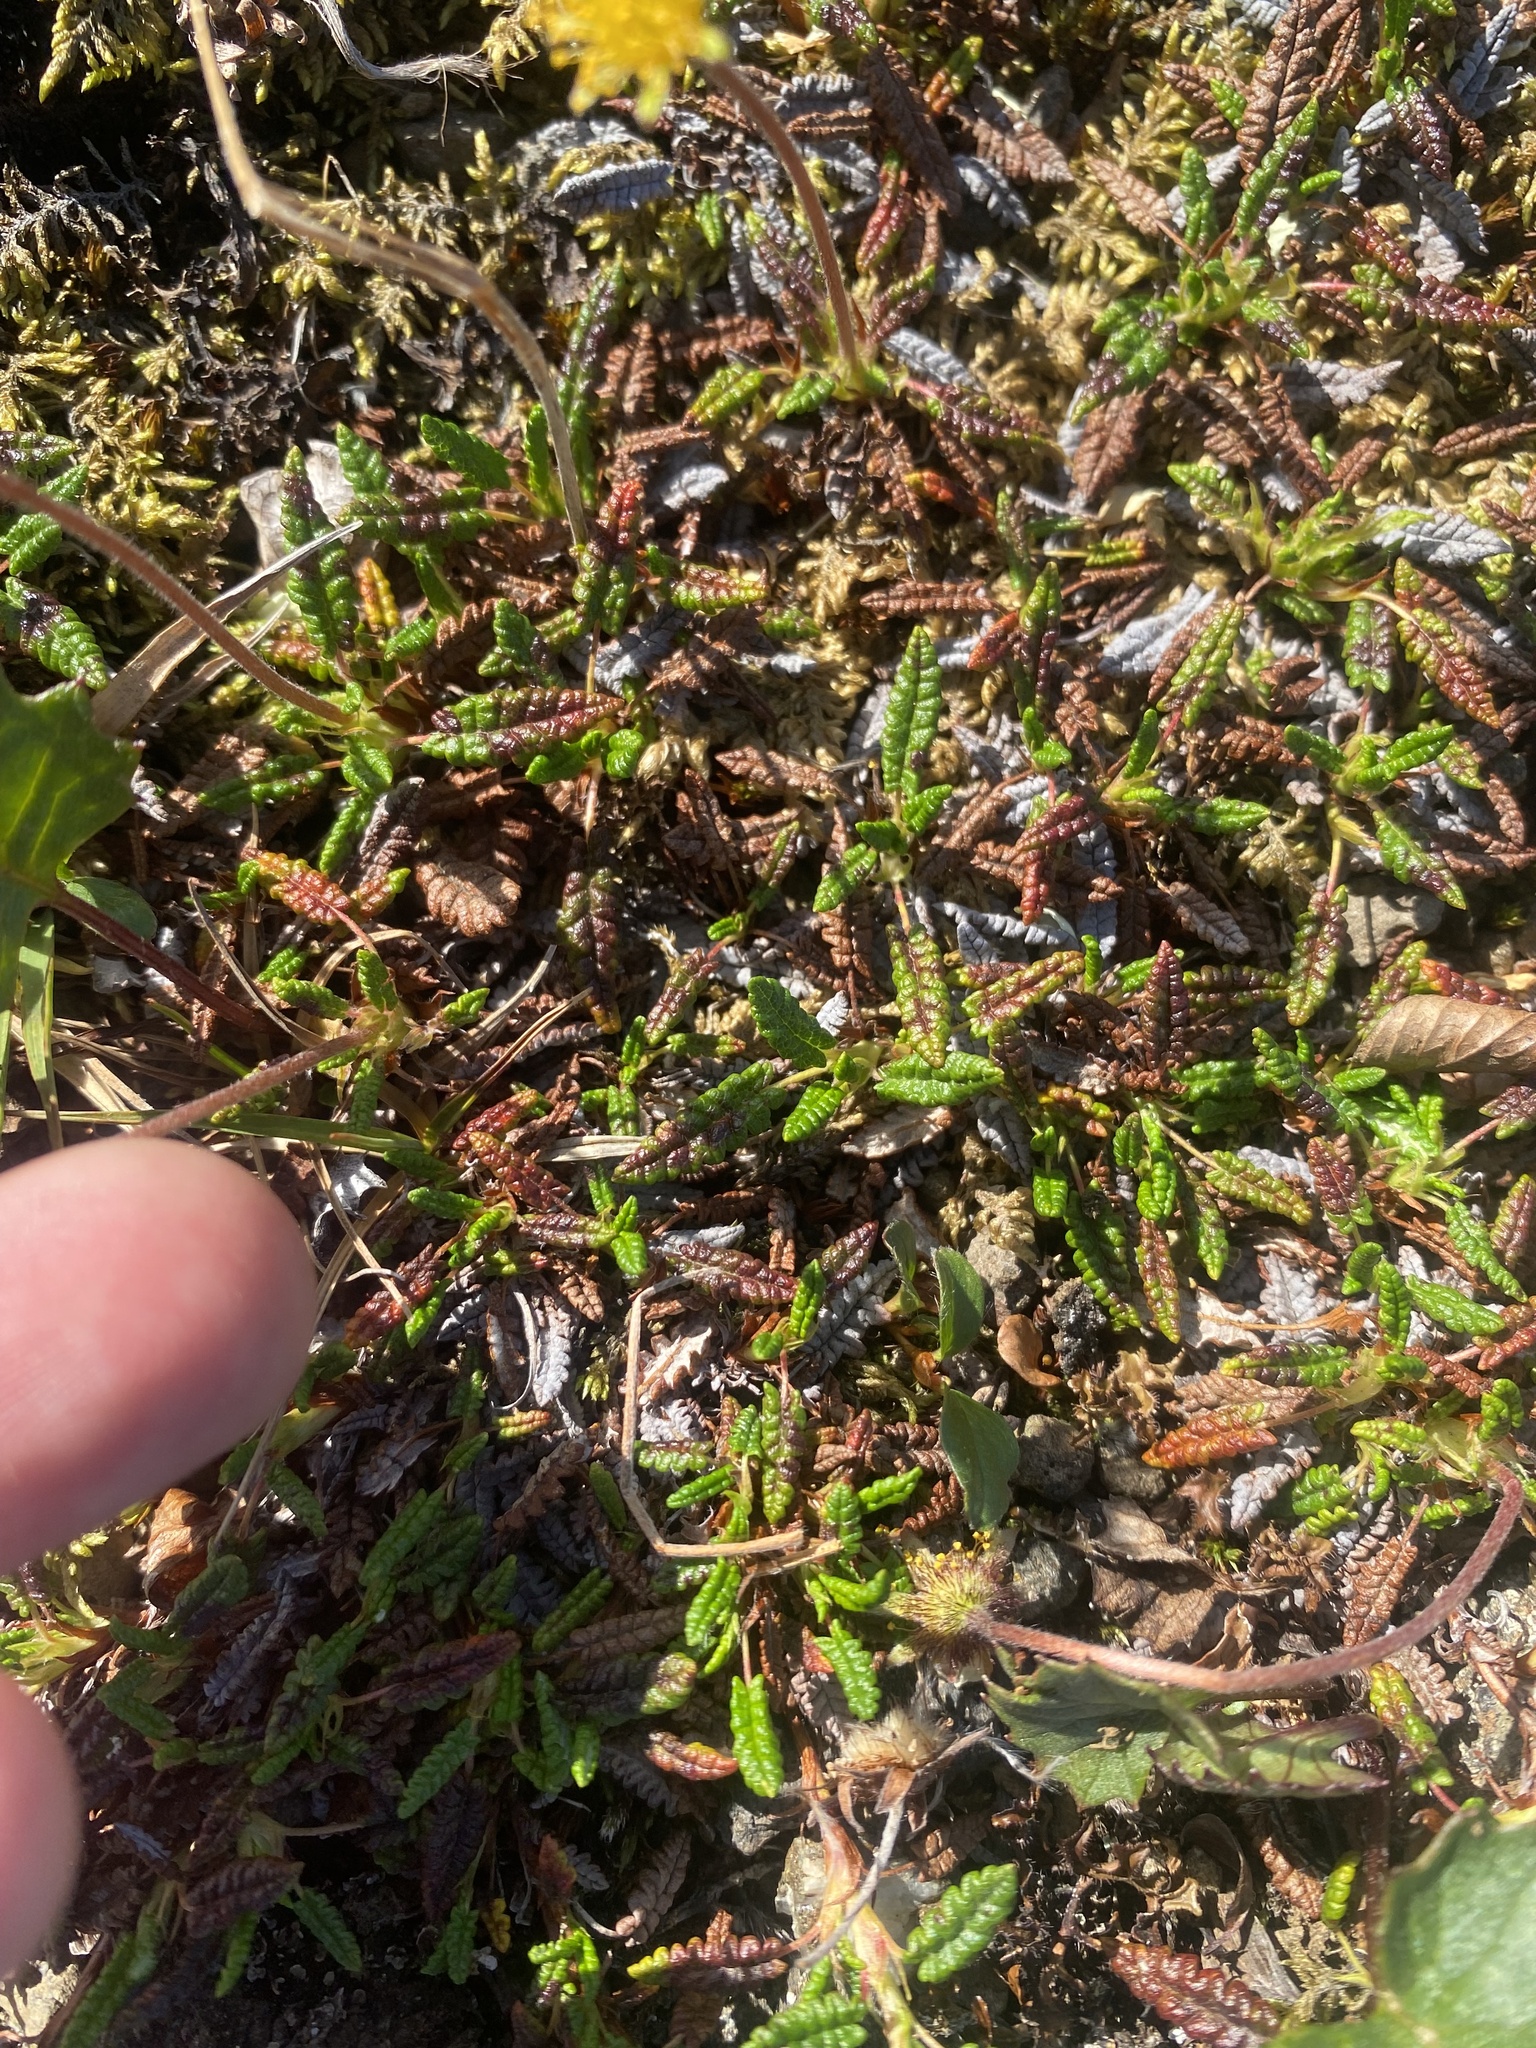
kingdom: Plantae
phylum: Tracheophyta
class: Magnoliopsida
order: Rosales
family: Rosaceae
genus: Dryas
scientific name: Dryas octopetala
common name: Eight-petal mountain-avens
